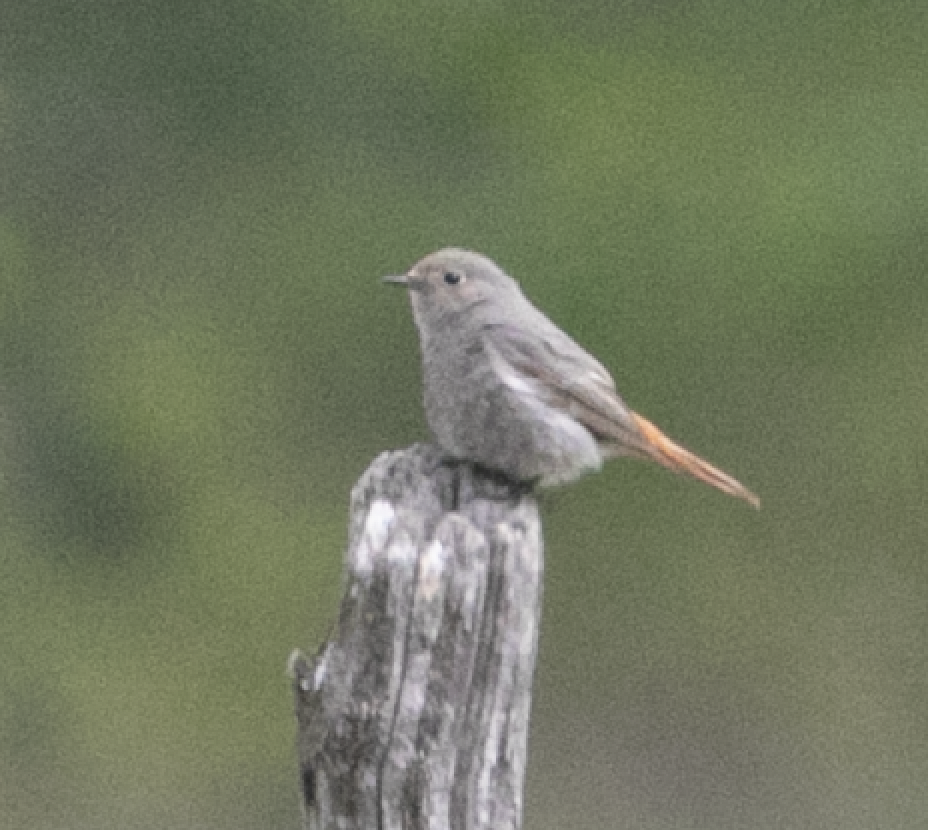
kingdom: Animalia
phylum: Chordata
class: Aves
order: Passeriformes
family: Muscicapidae
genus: Phoenicurus
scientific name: Phoenicurus ochruros
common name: Black redstart
